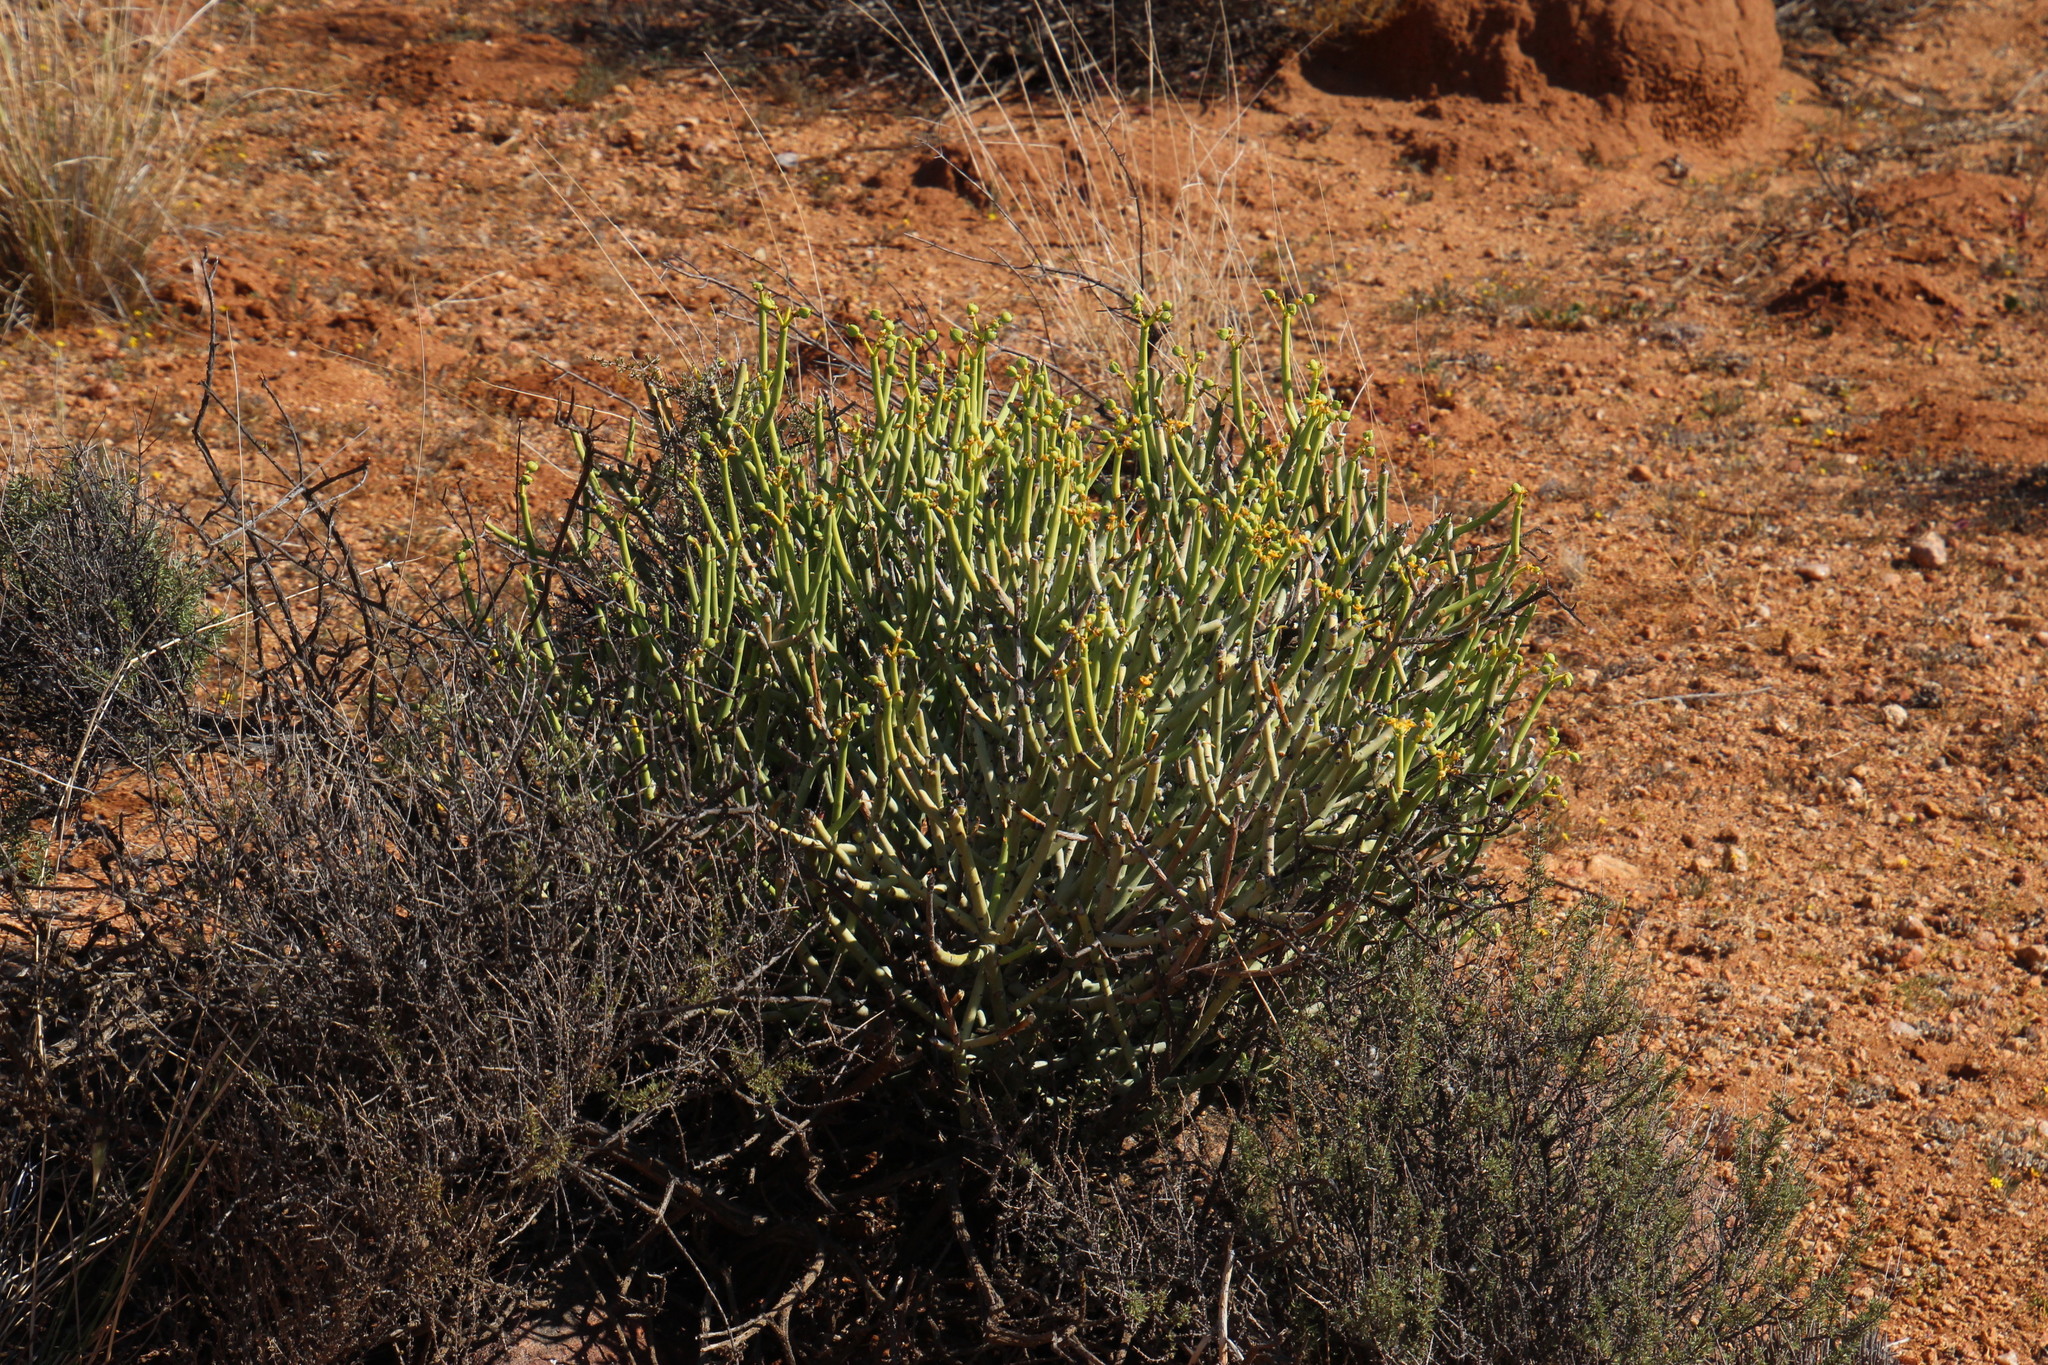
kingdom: Plantae
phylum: Tracheophyta
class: Magnoliopsida
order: Malpighiales
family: Euphorbiaceae
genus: Euphorbia
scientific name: Euphorbia mauritanica
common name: Jackal's-food
